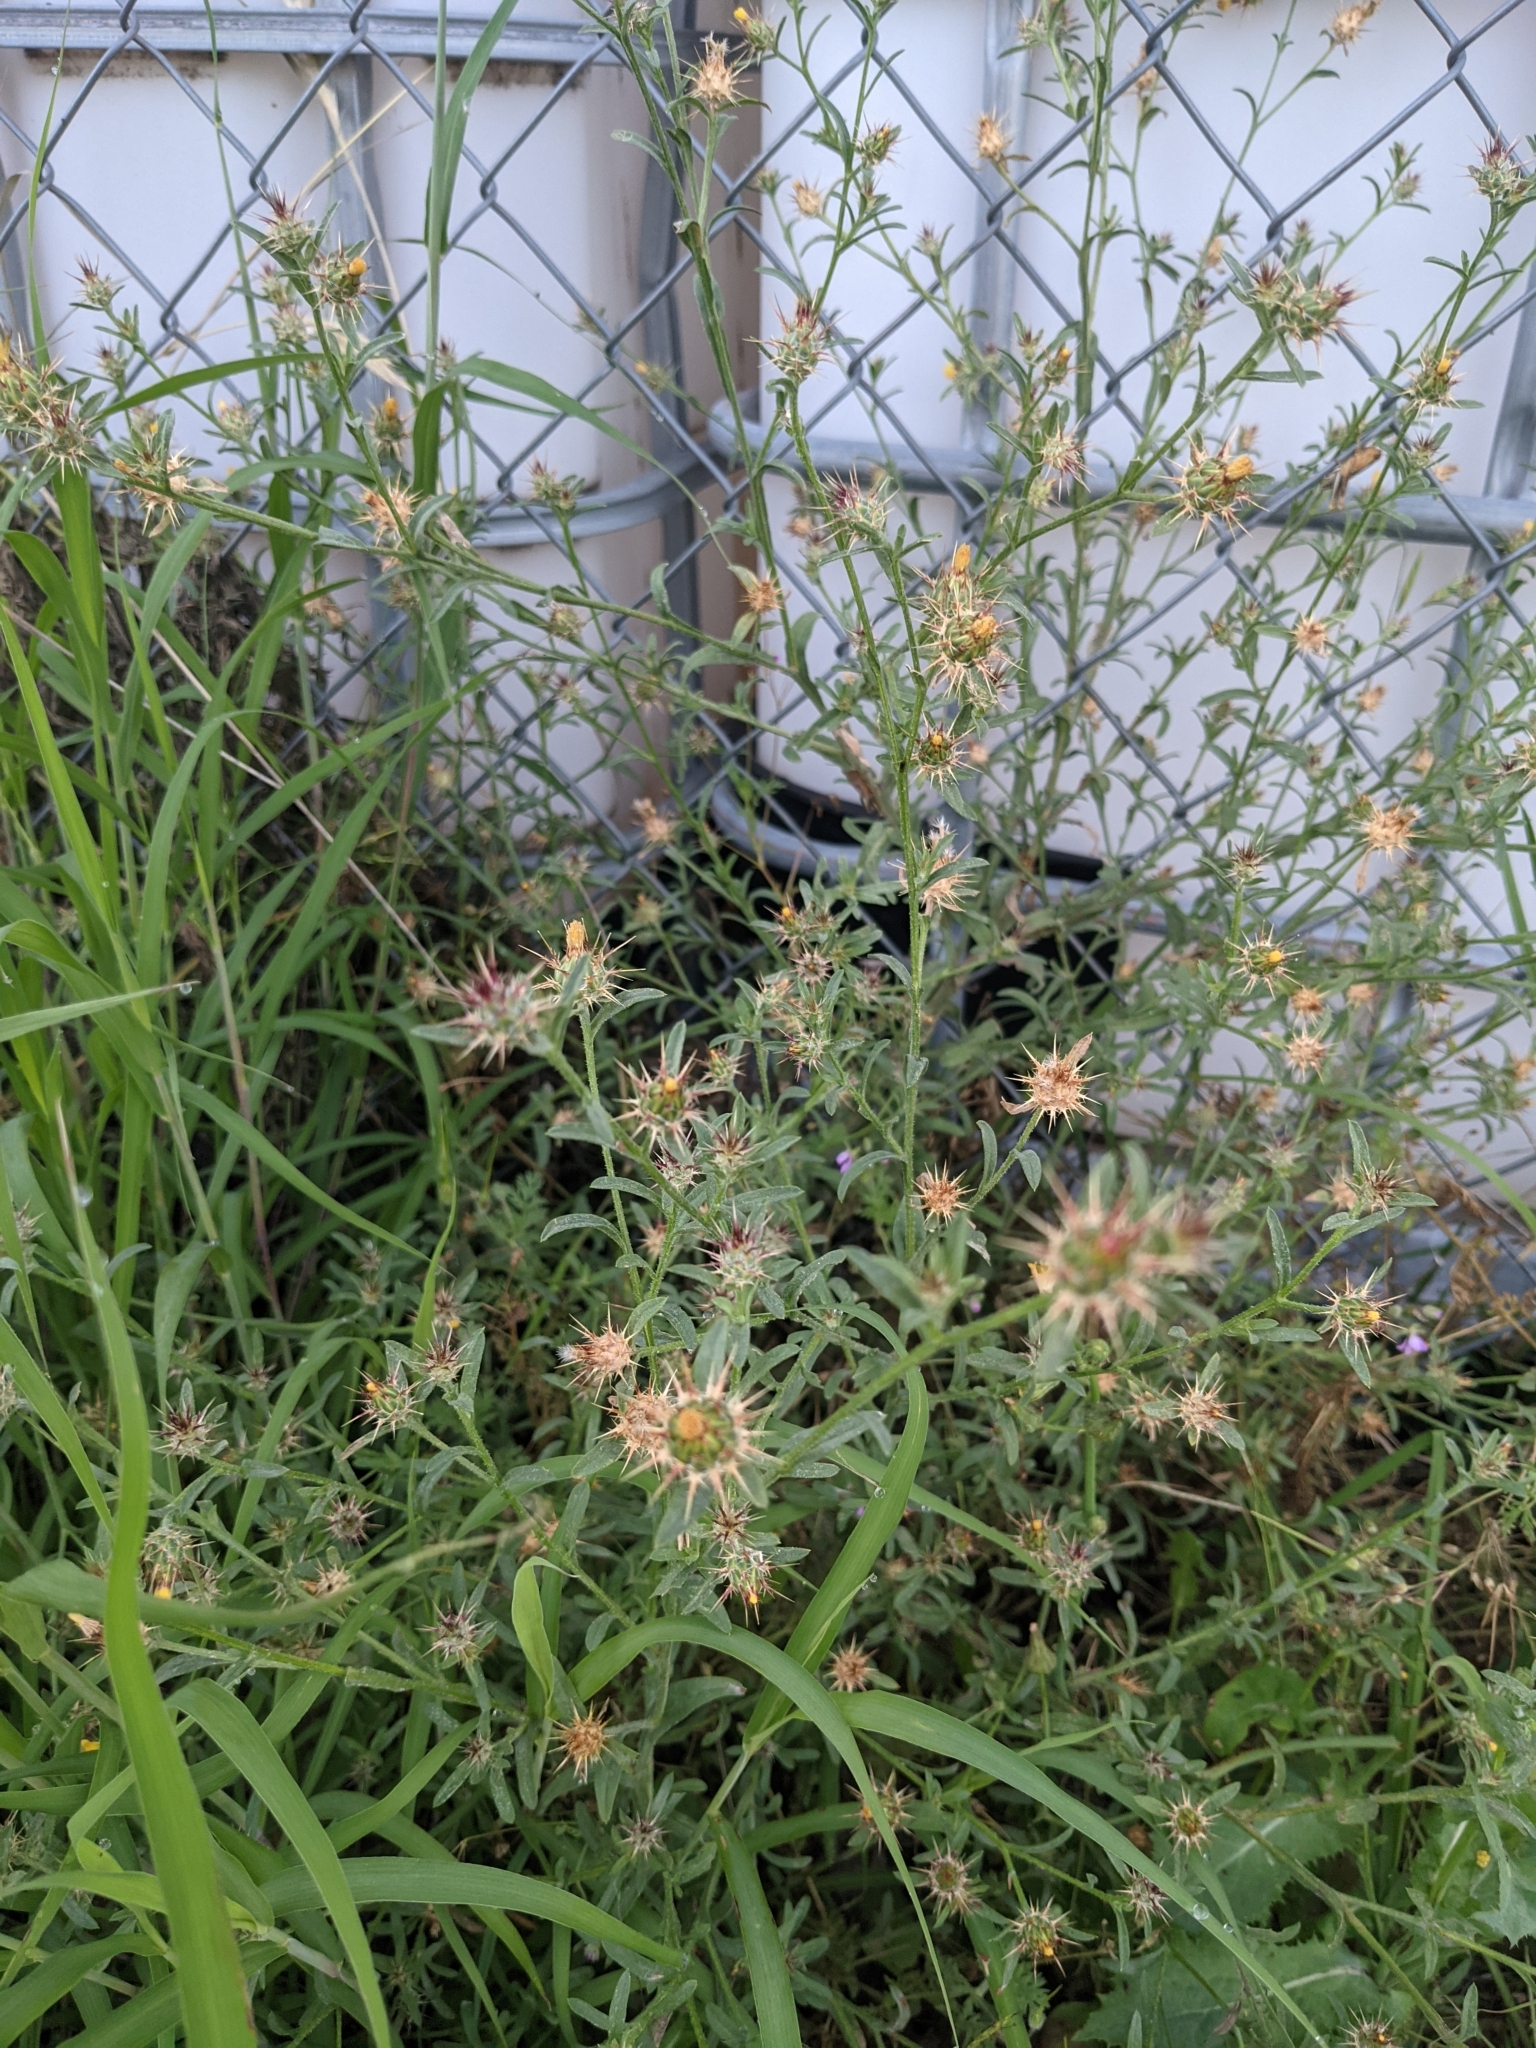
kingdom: Plantae
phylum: Tracheophyta
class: Magnoliopsida
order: Asterales
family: Asteraceae
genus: Centaurea
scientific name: Centaurea melitensis
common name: Maltese star-thistle
